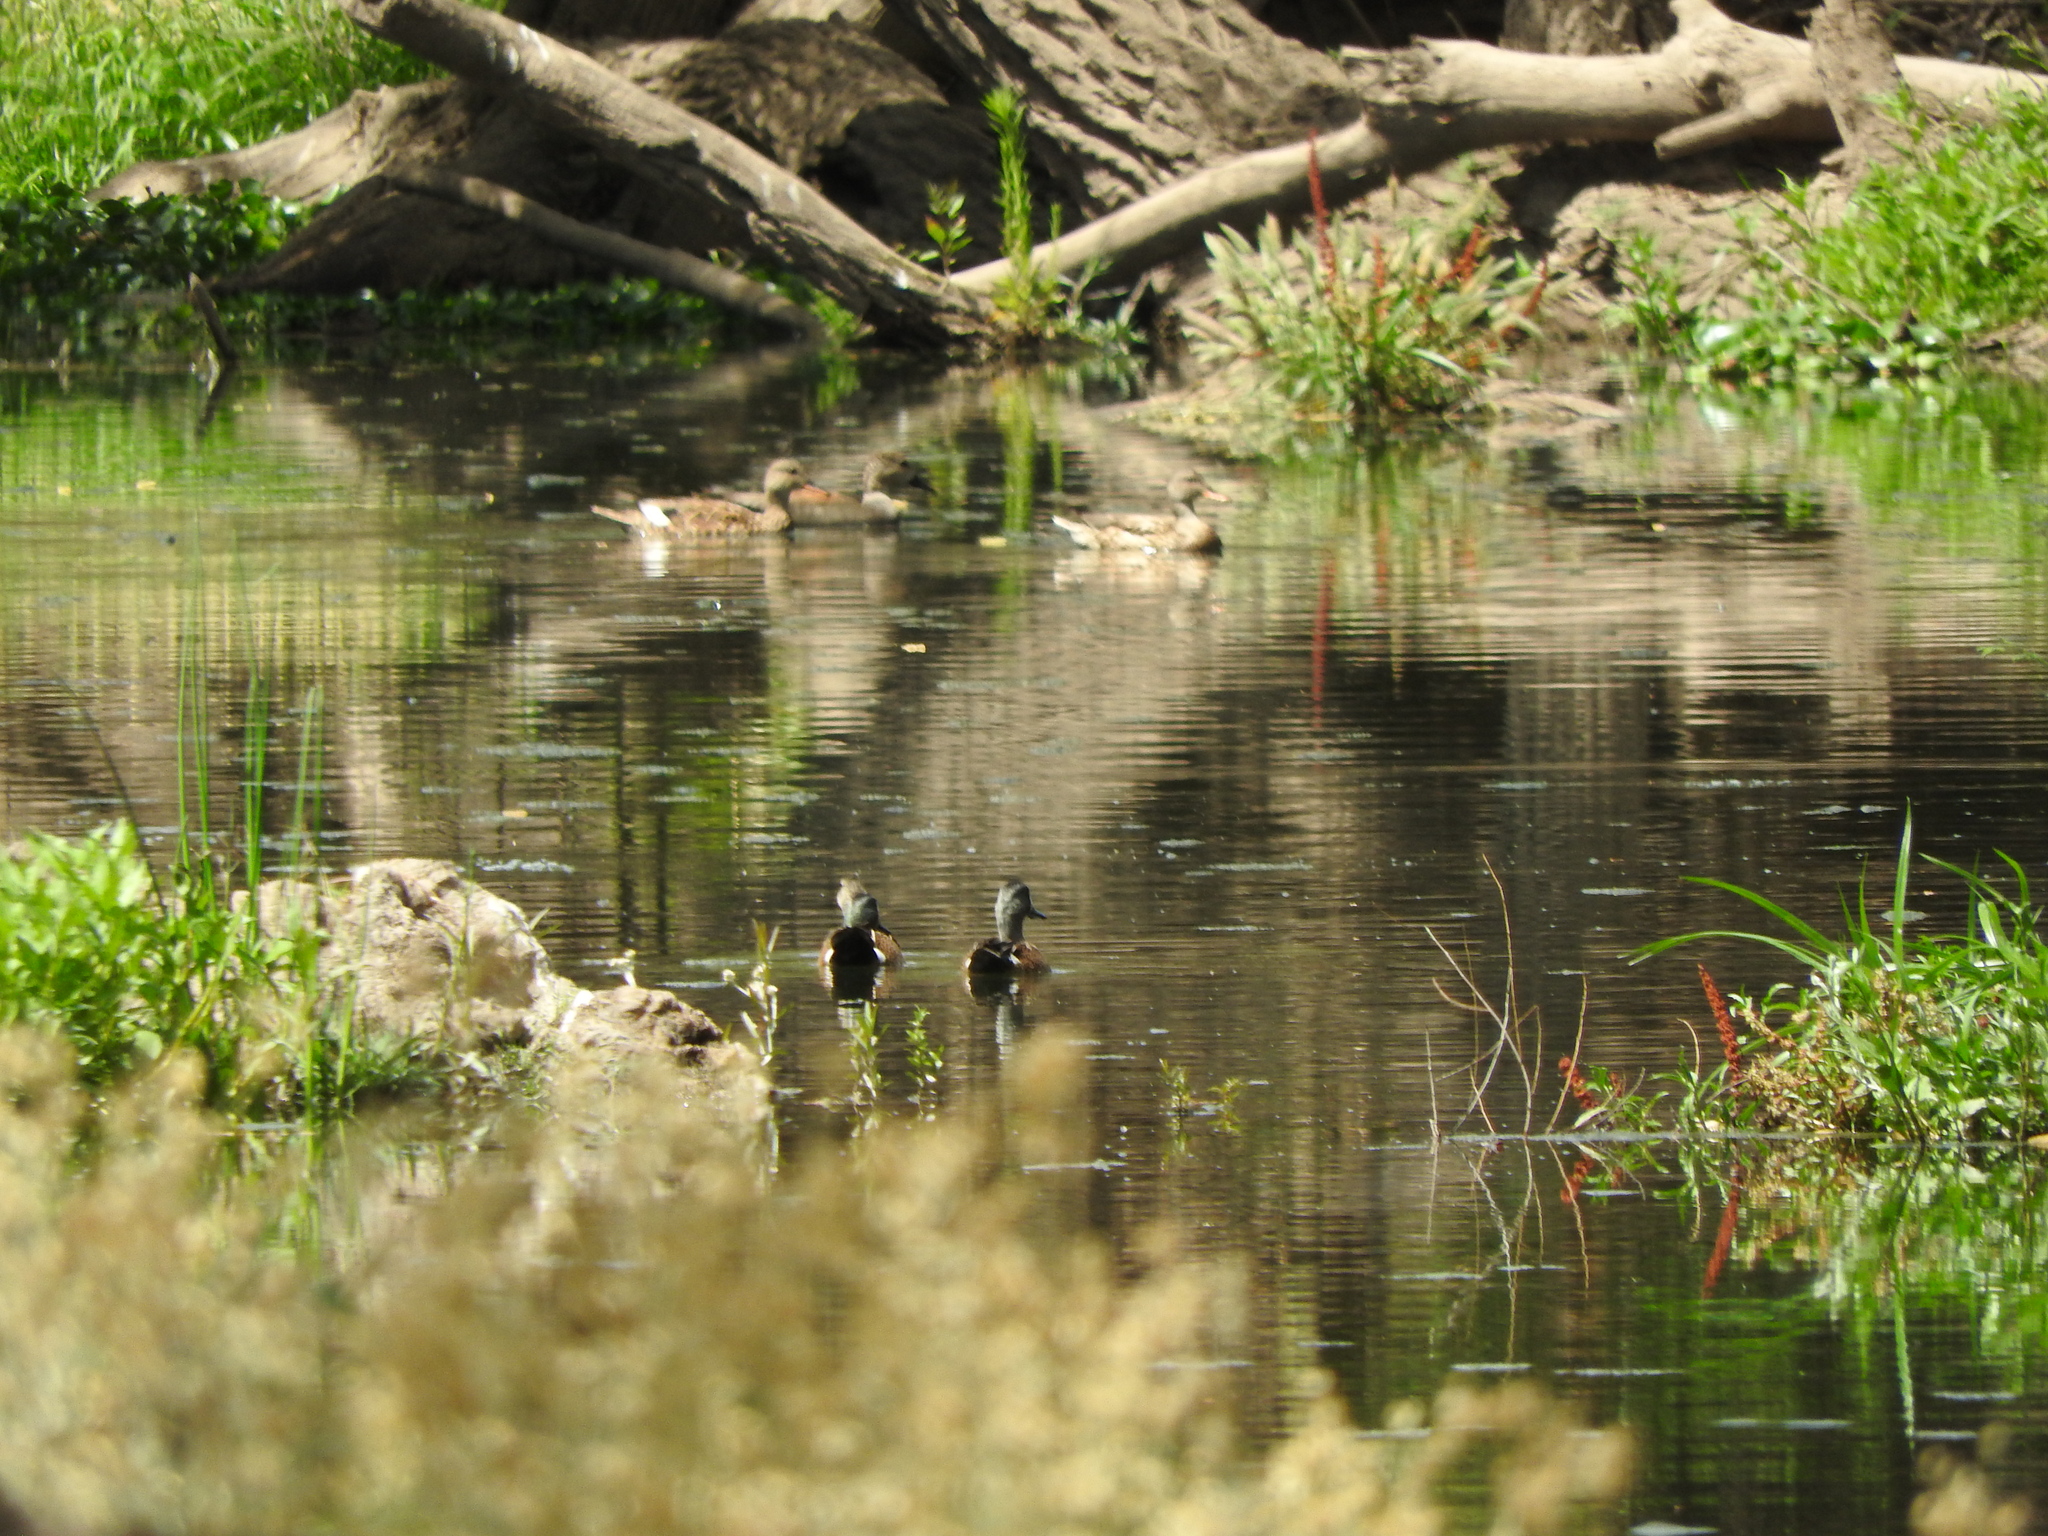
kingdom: Animalia
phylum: Chordata
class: Aves
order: Anseriformes
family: Anatidae
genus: Spatula
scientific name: Spatula discors
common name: Blue-winged teal
